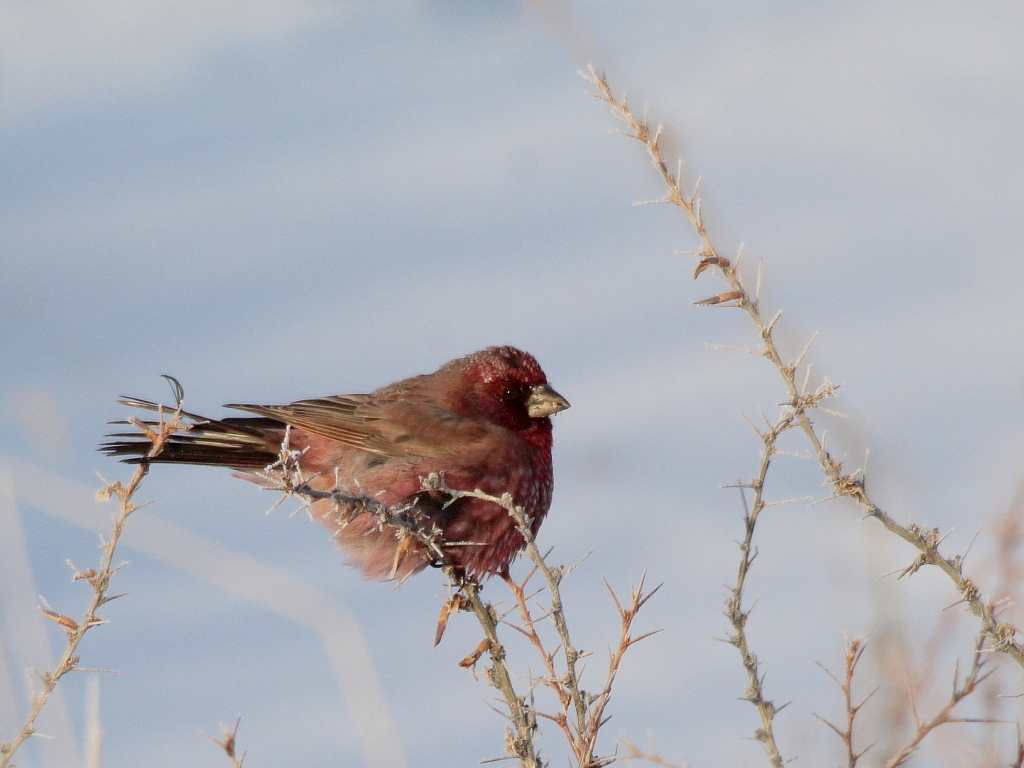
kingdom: Animalia
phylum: Chordata
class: Aves
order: Passeriformes
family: Fringillidae
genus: Carpodacus
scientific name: Carpodacus rubicilla
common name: Great rosefinch
